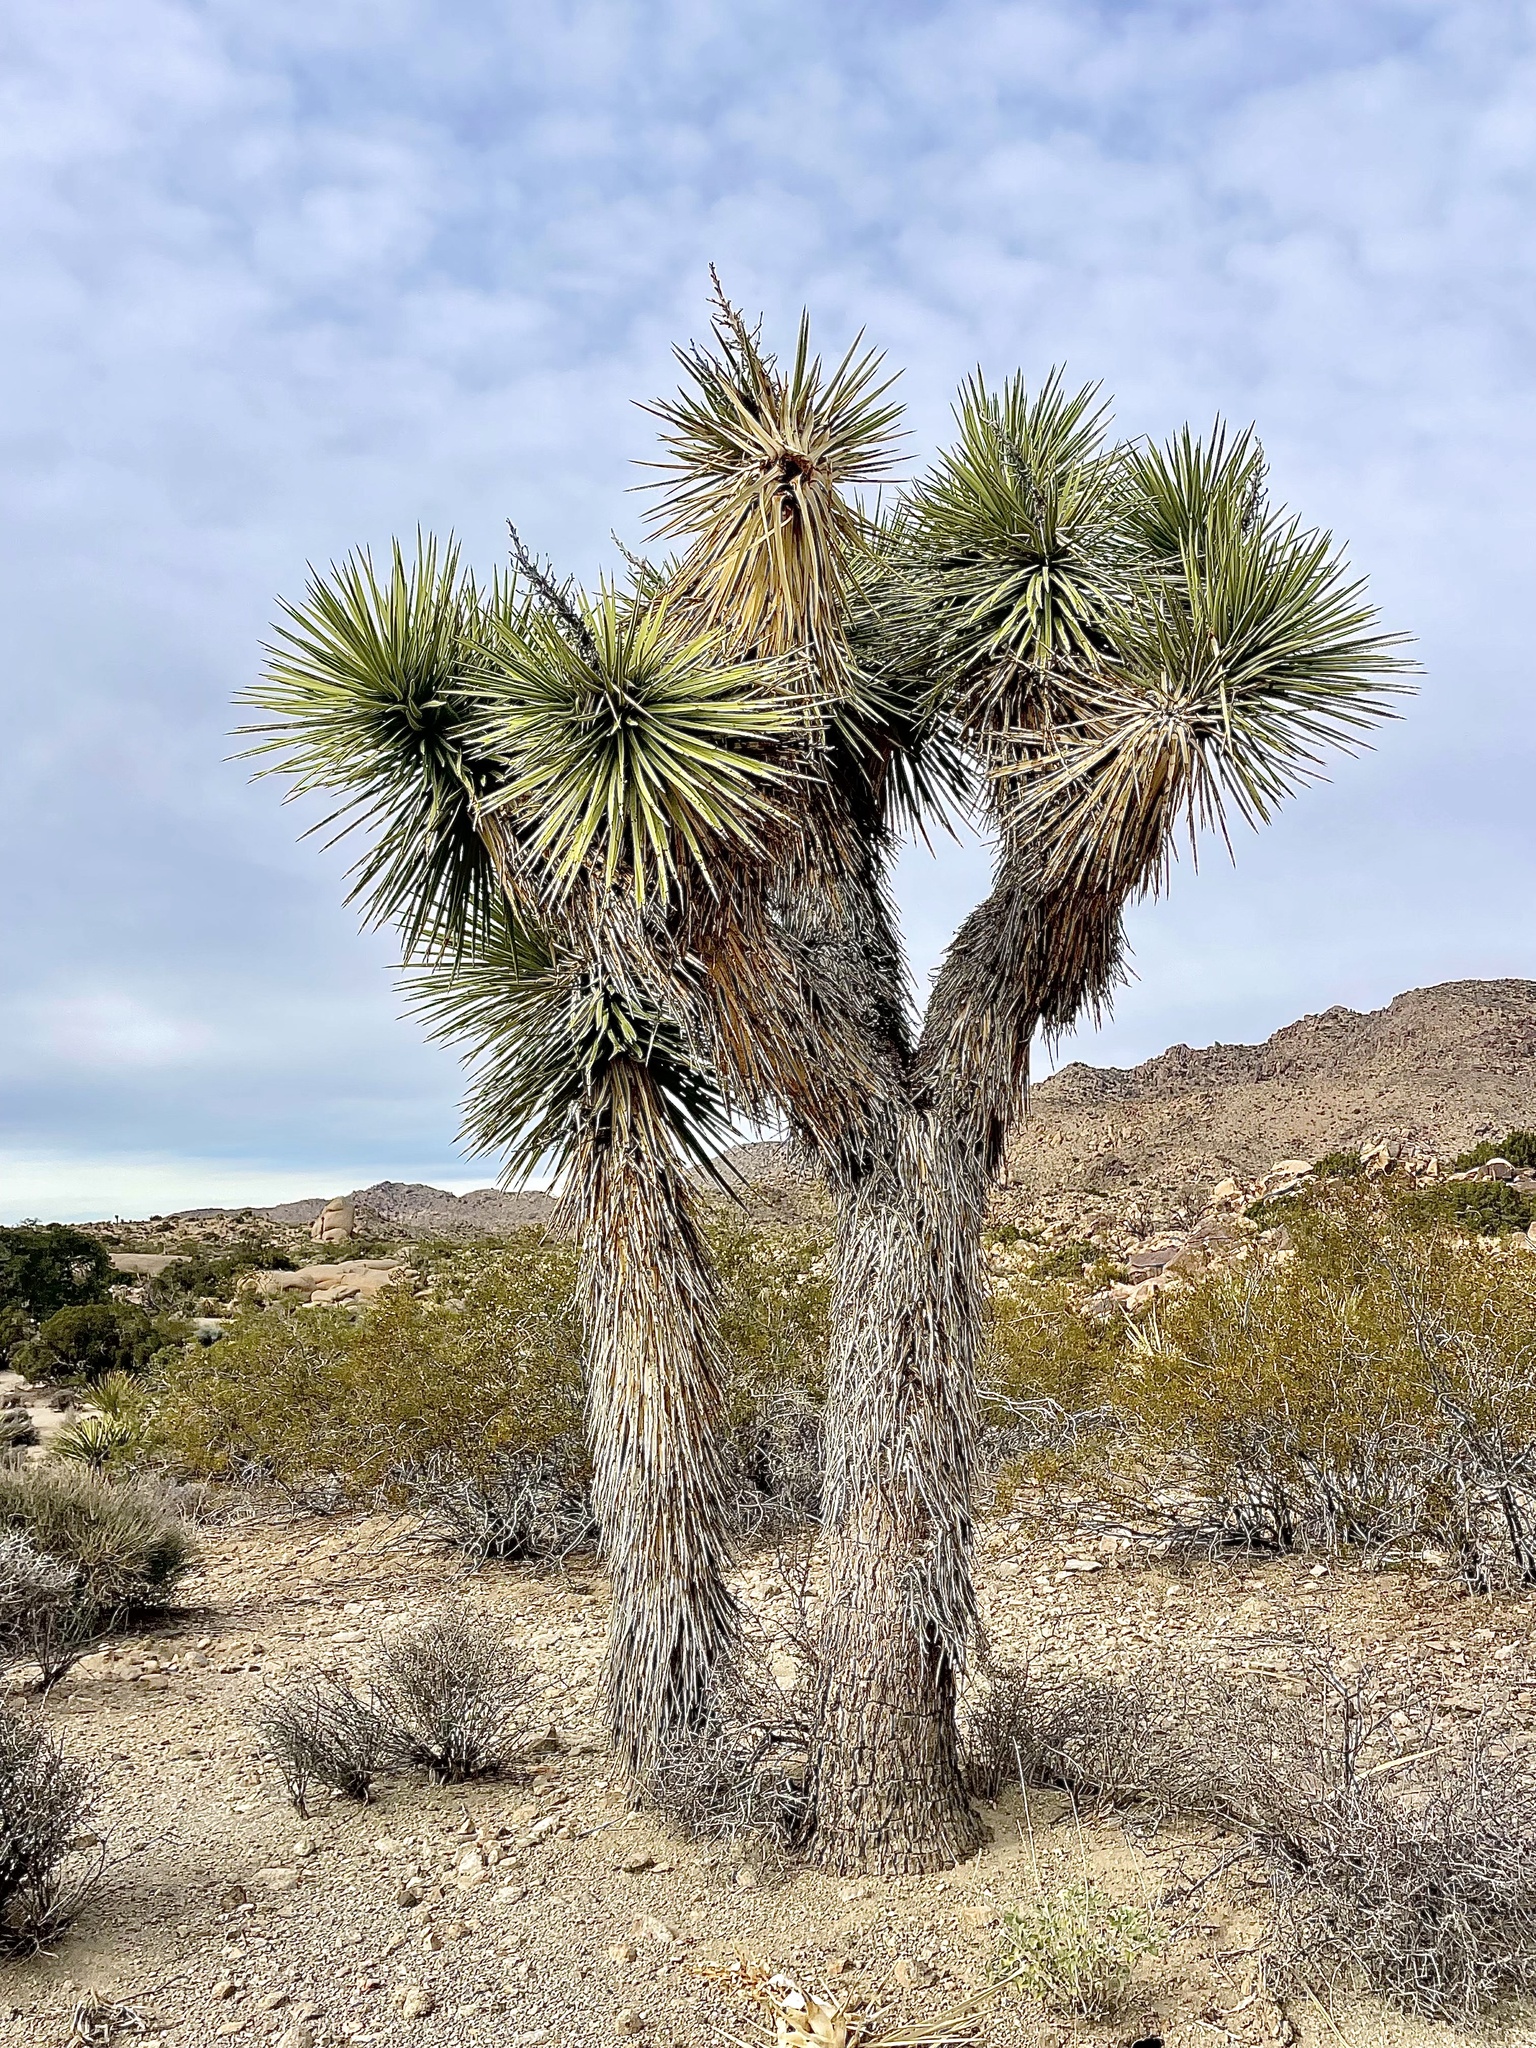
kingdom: Plantae
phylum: Tracheophyta
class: Liliopsida
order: Asparagales
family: Asparagaceae
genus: Yucca
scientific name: Yucca brevifolia
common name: Joshua tree
